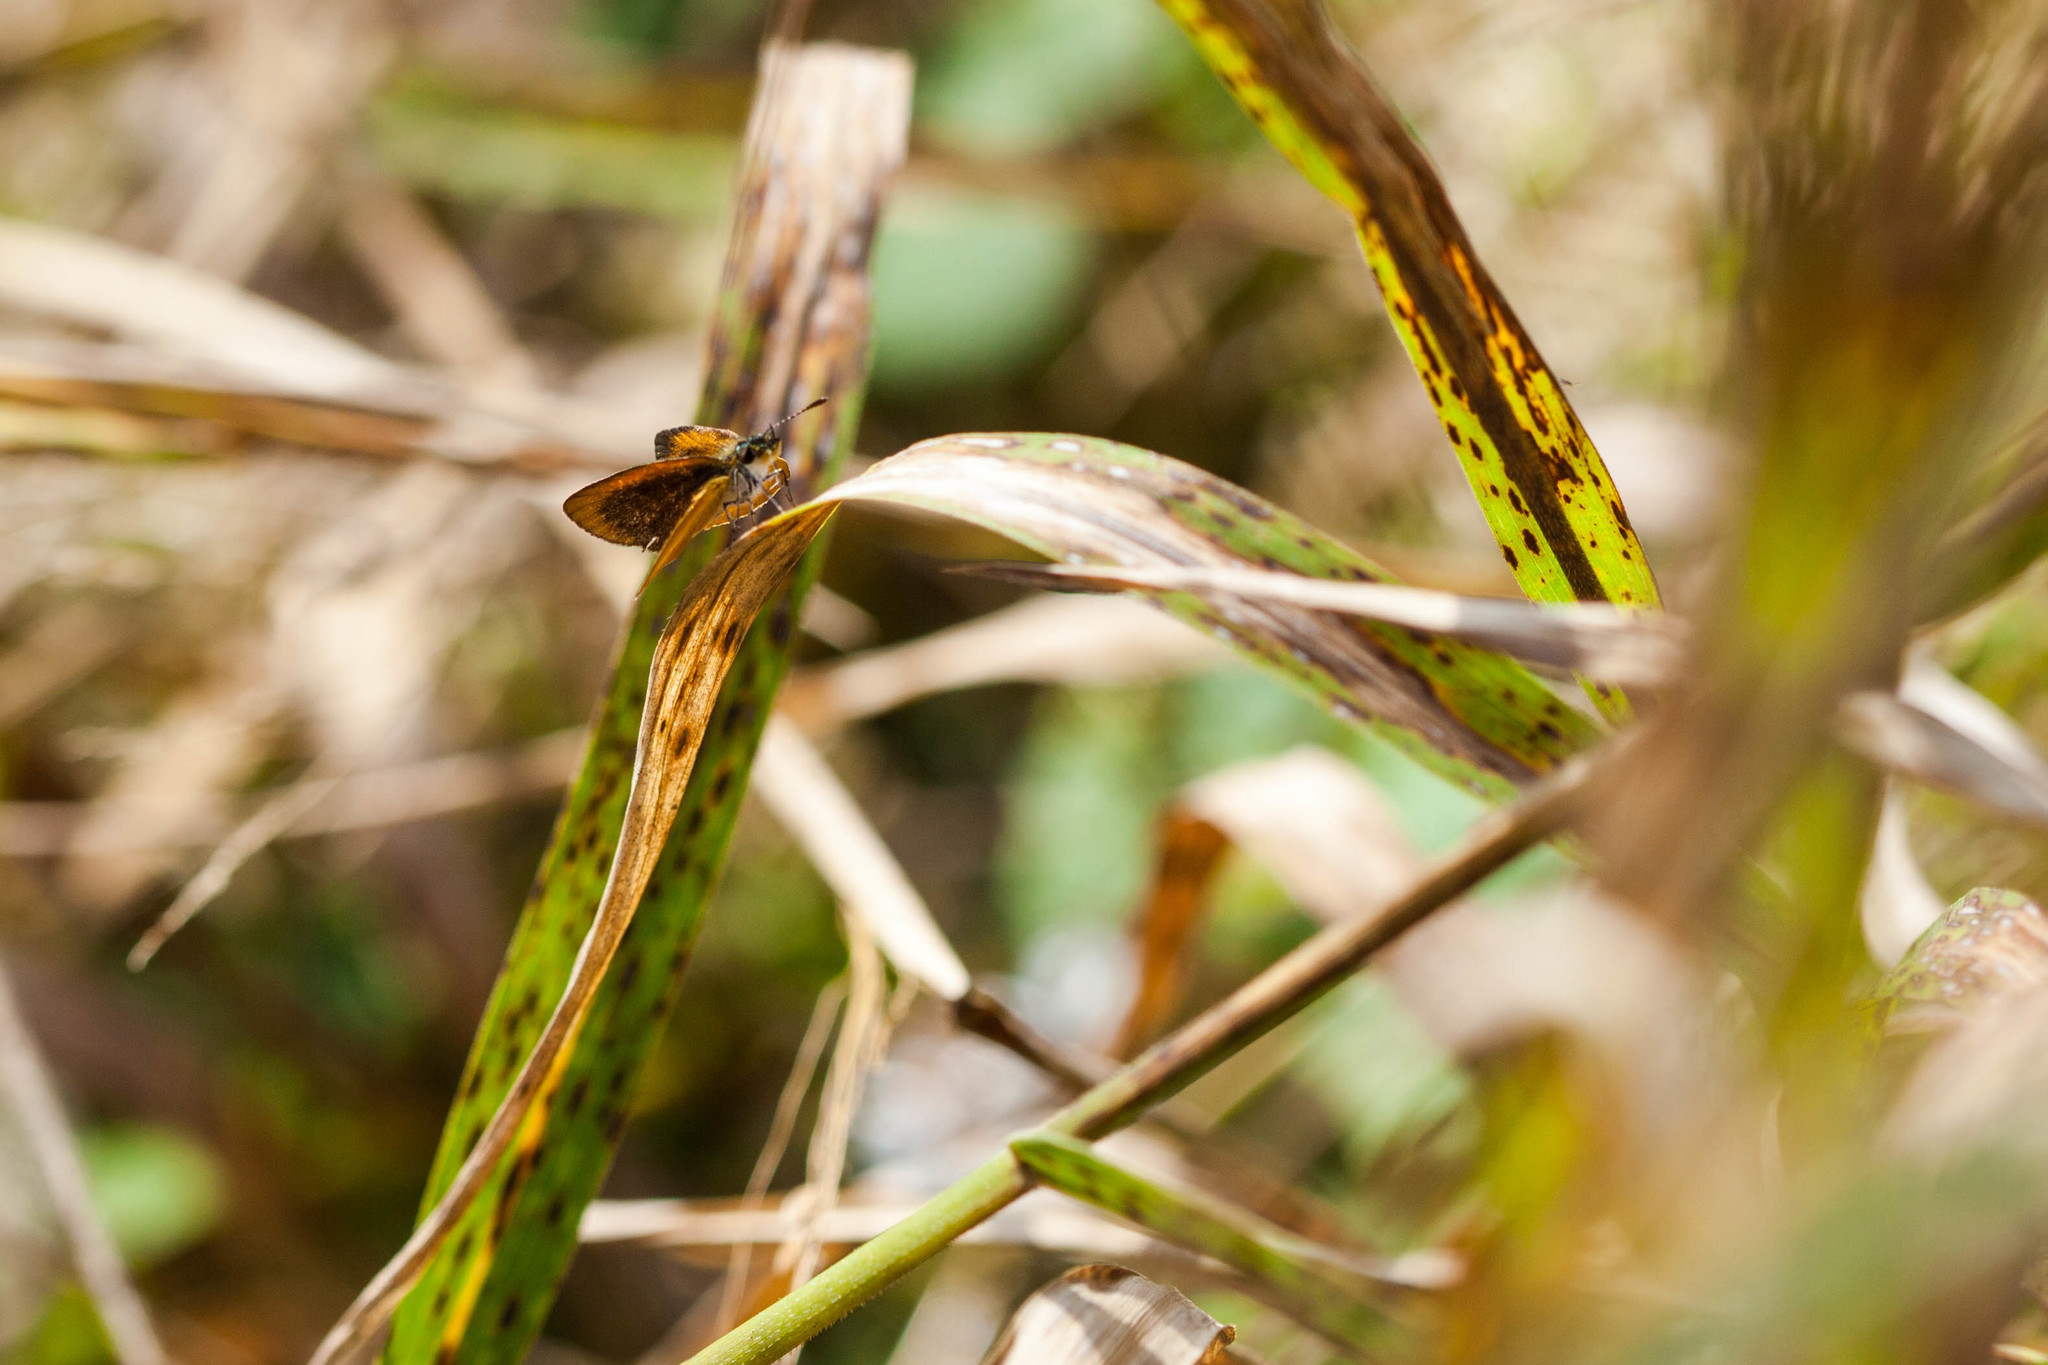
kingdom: Animalia
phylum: Arthropoda
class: Insecta
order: Lepidoptera
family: Hesperiidae
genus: Ancyloxypha
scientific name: Ancyloxypha numitor
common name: Least skipper
